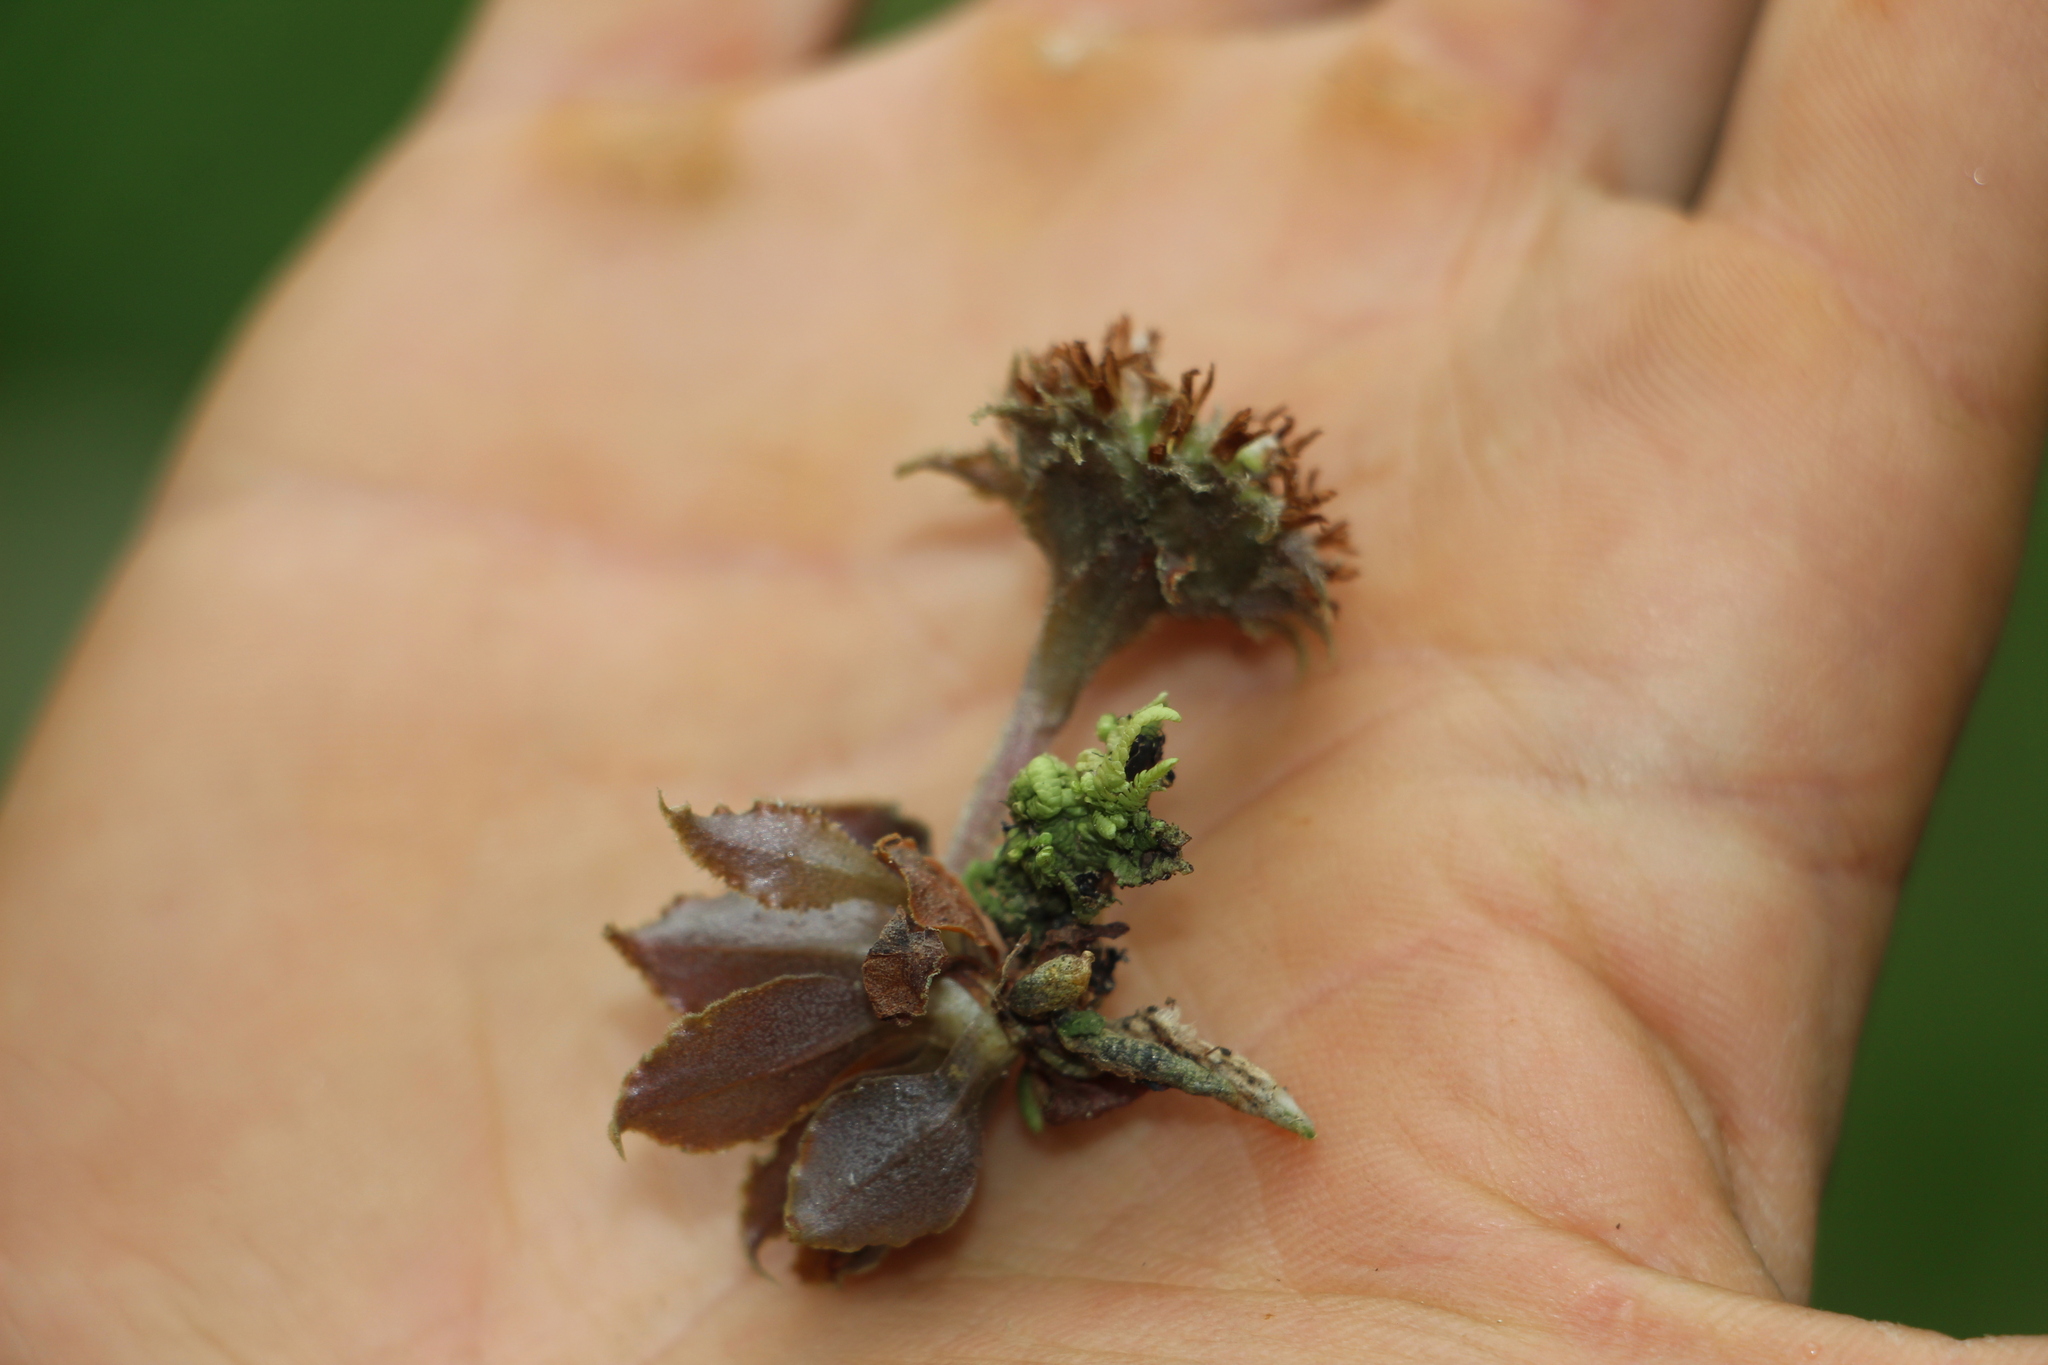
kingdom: Plantae
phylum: Tracheophyta
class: Liliopsida
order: Asparagales
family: Orchidaceae
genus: Eurystyles
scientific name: Eurystyles cotyledon
